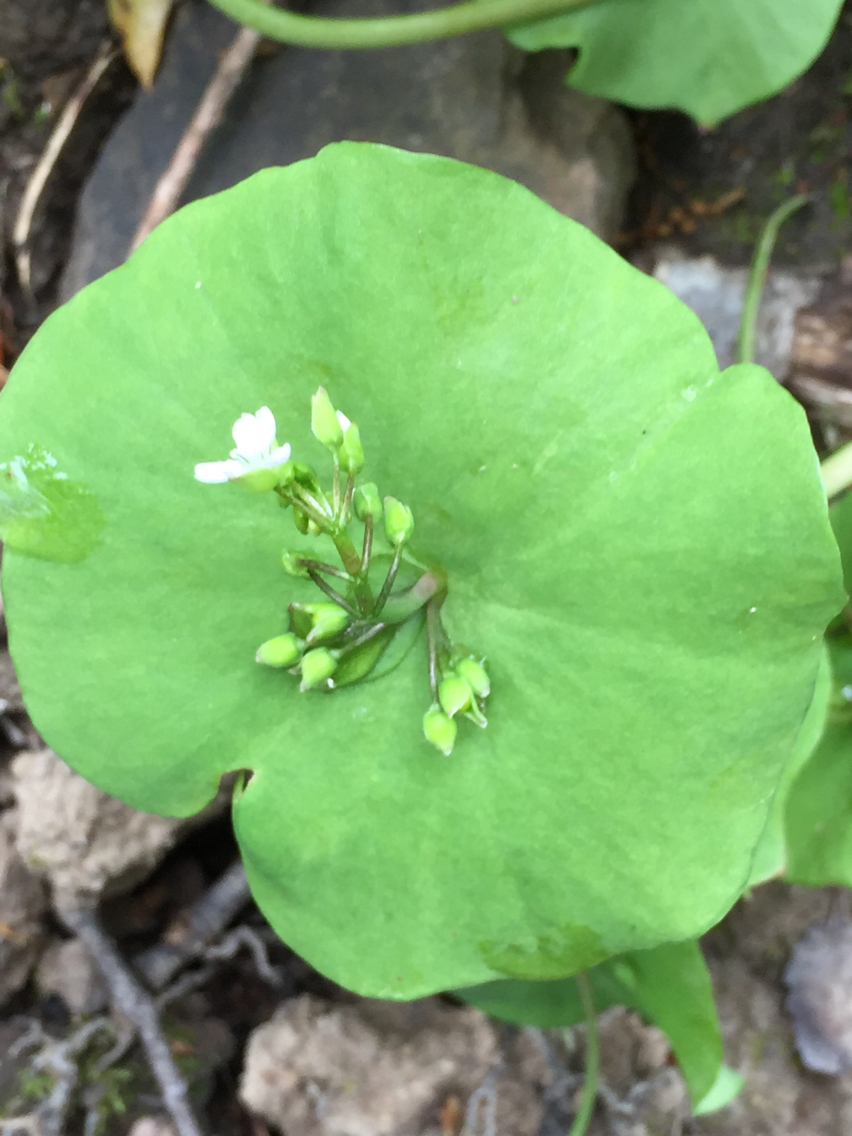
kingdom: Plantae
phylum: Tracheophyta
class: Magnoliopsida
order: Caryophyllales
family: Montiaceae
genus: Claytonia
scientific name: Claytonia perfoliata
